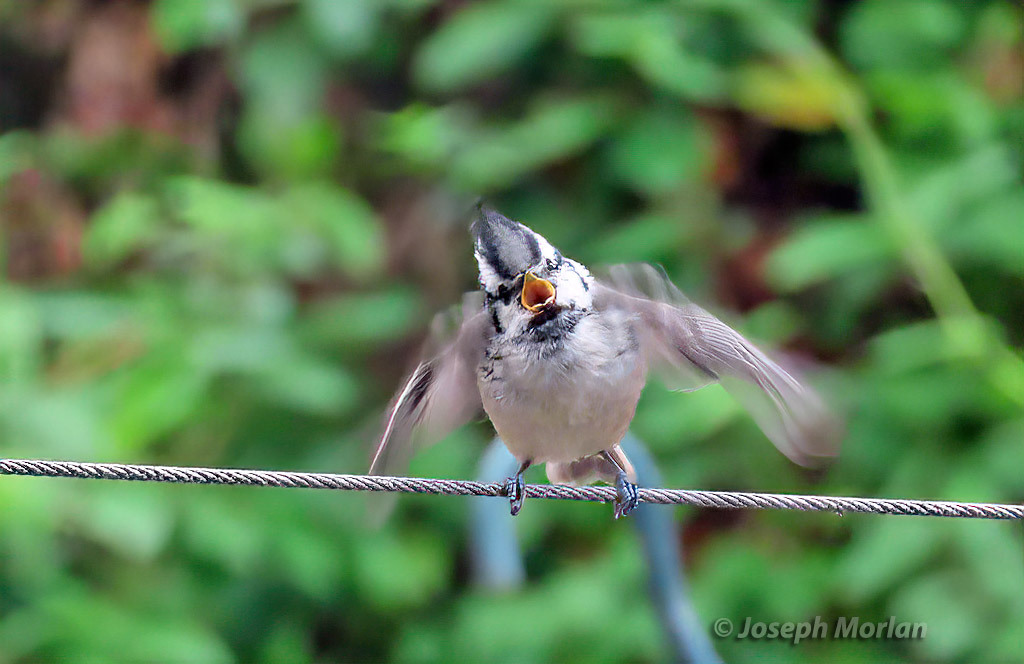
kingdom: Animalia
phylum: Chordata
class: Aves
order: Passeriformes
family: Paridae
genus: Baeolophus
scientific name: Baeolophus wollweberi
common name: Bridled titmouse
